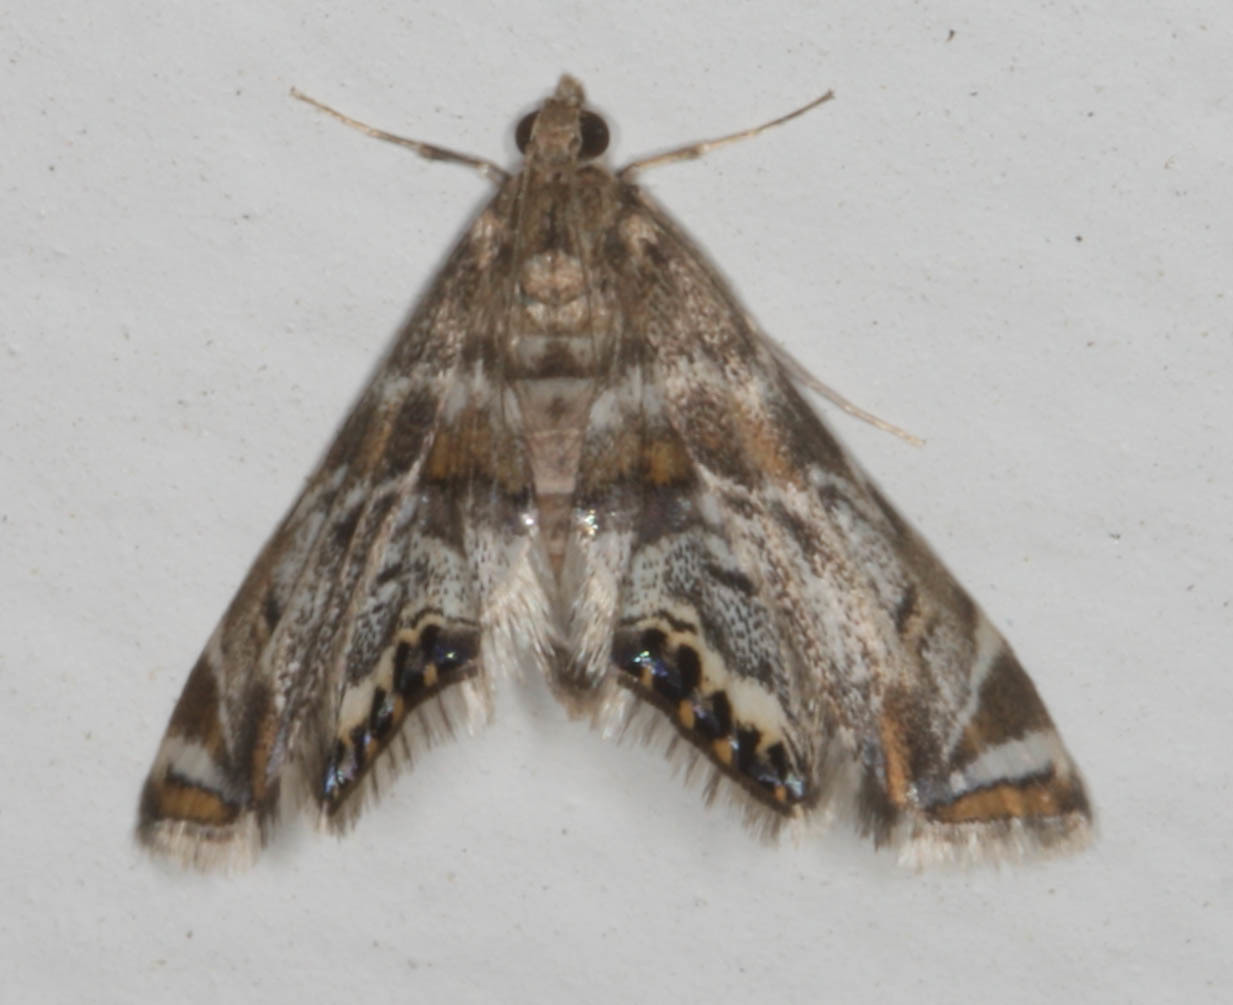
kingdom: Animalia
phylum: Arthropoda
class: Insecta
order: Lepidoptera
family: Crambidae
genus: Petrophila
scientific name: Petrophila confusalis
